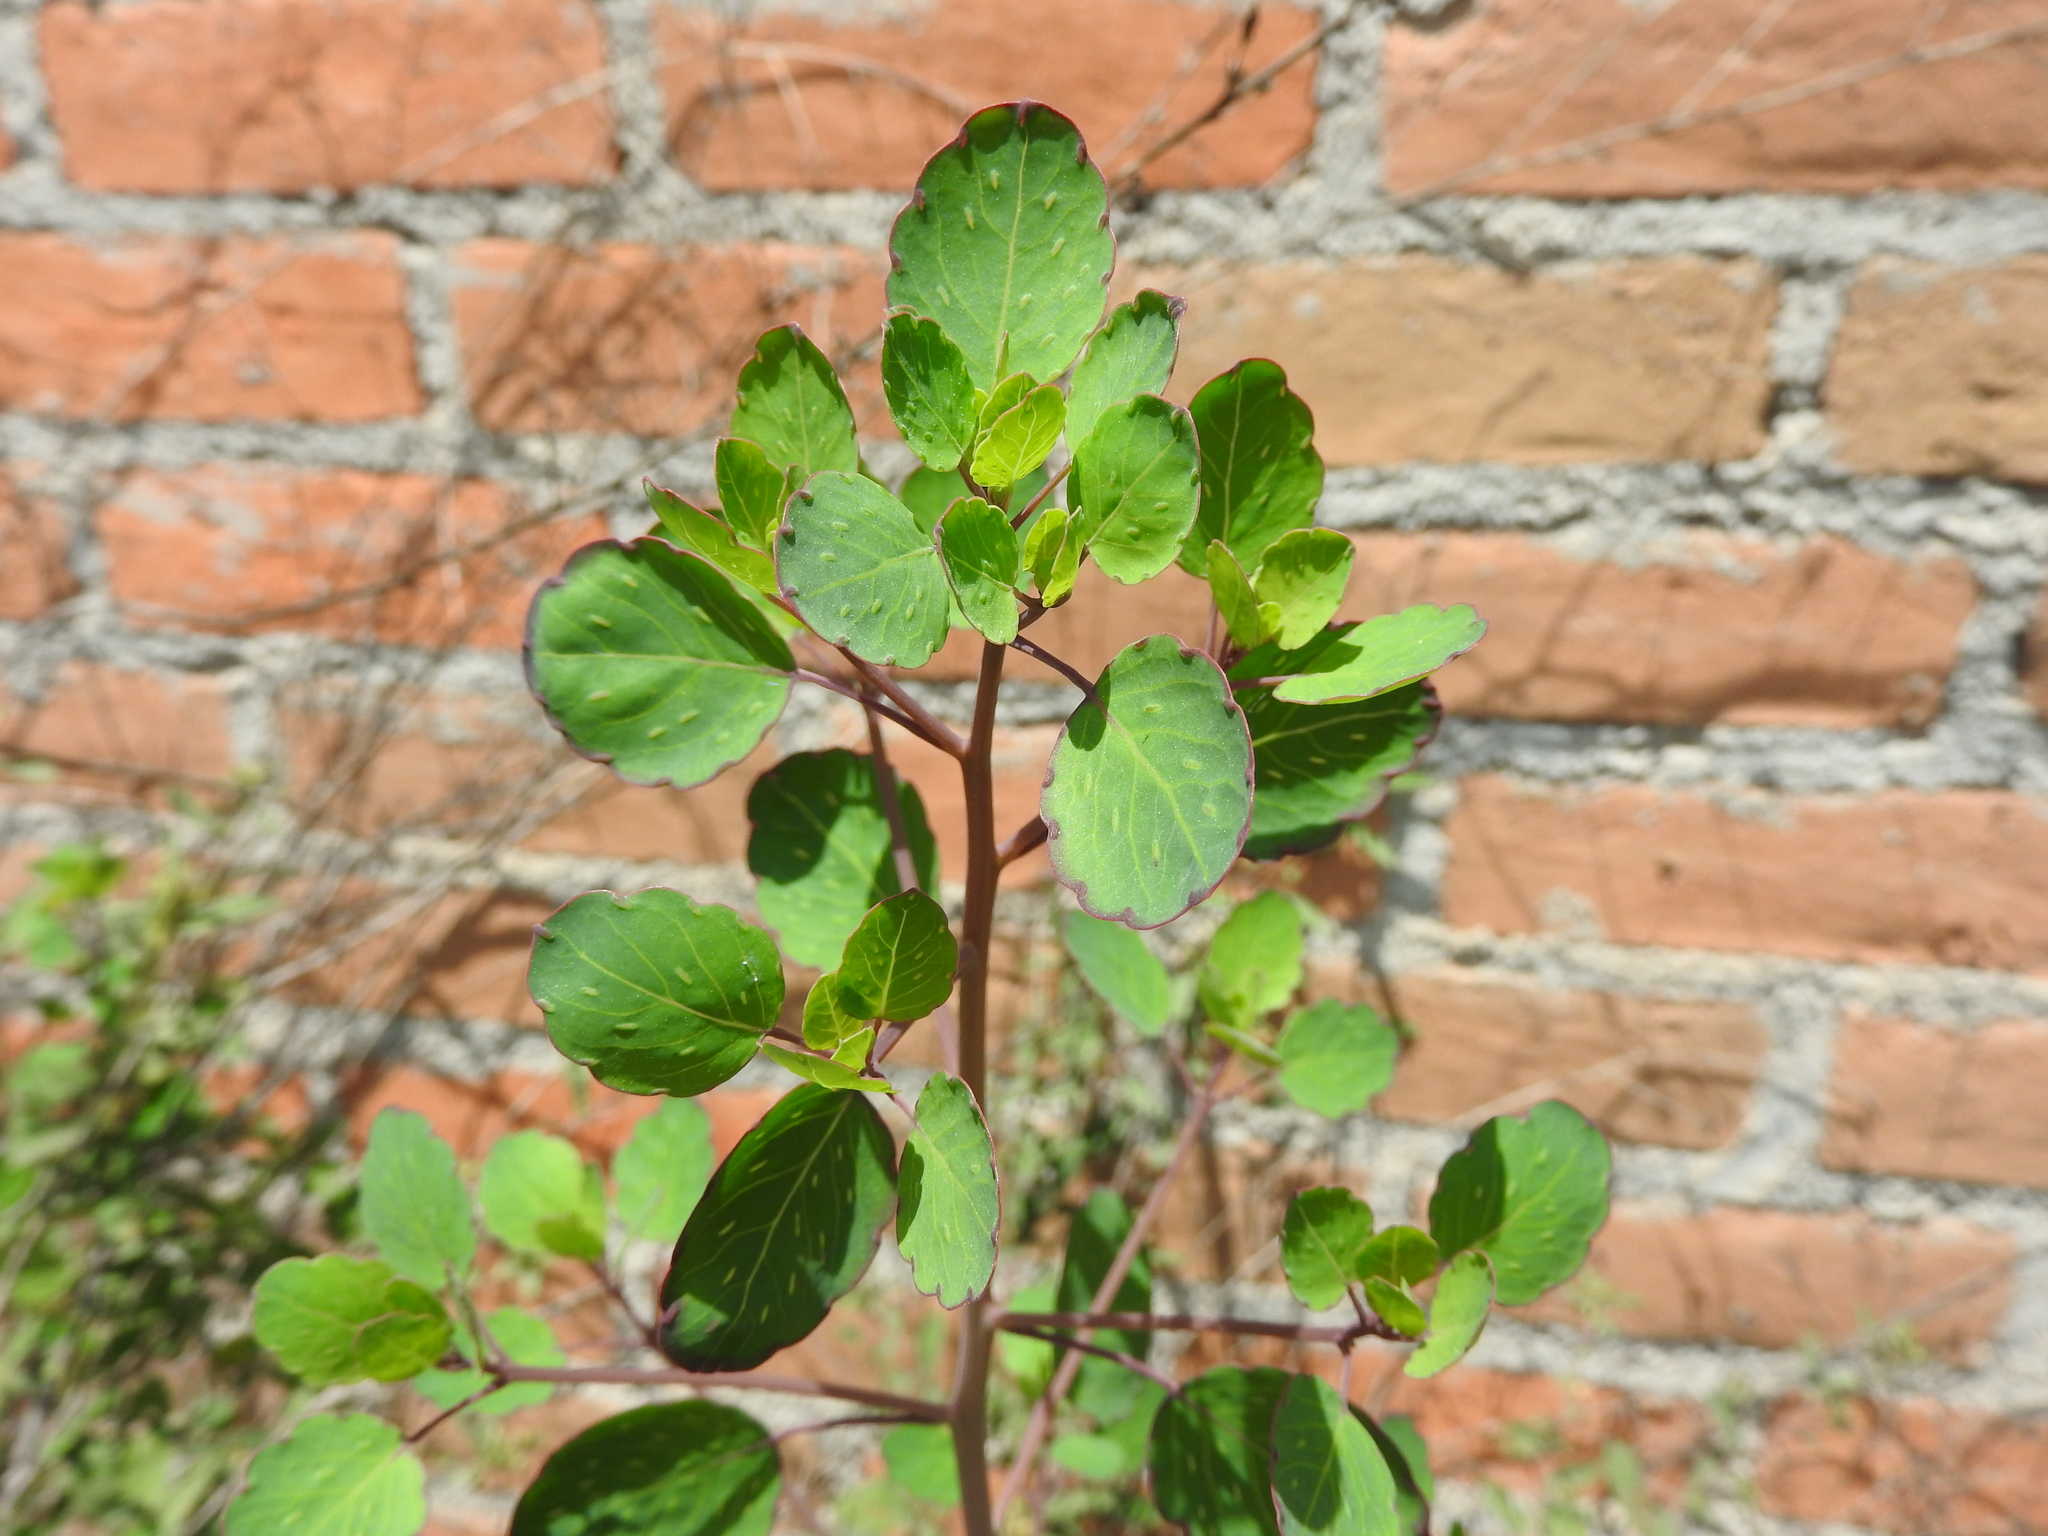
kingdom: Plantae
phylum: Tracheophyta
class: Magnoliopsida
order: Asterales
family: Asteraceae
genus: Porophyllum
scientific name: Porophyllum ruderale
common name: Yerba porosa
